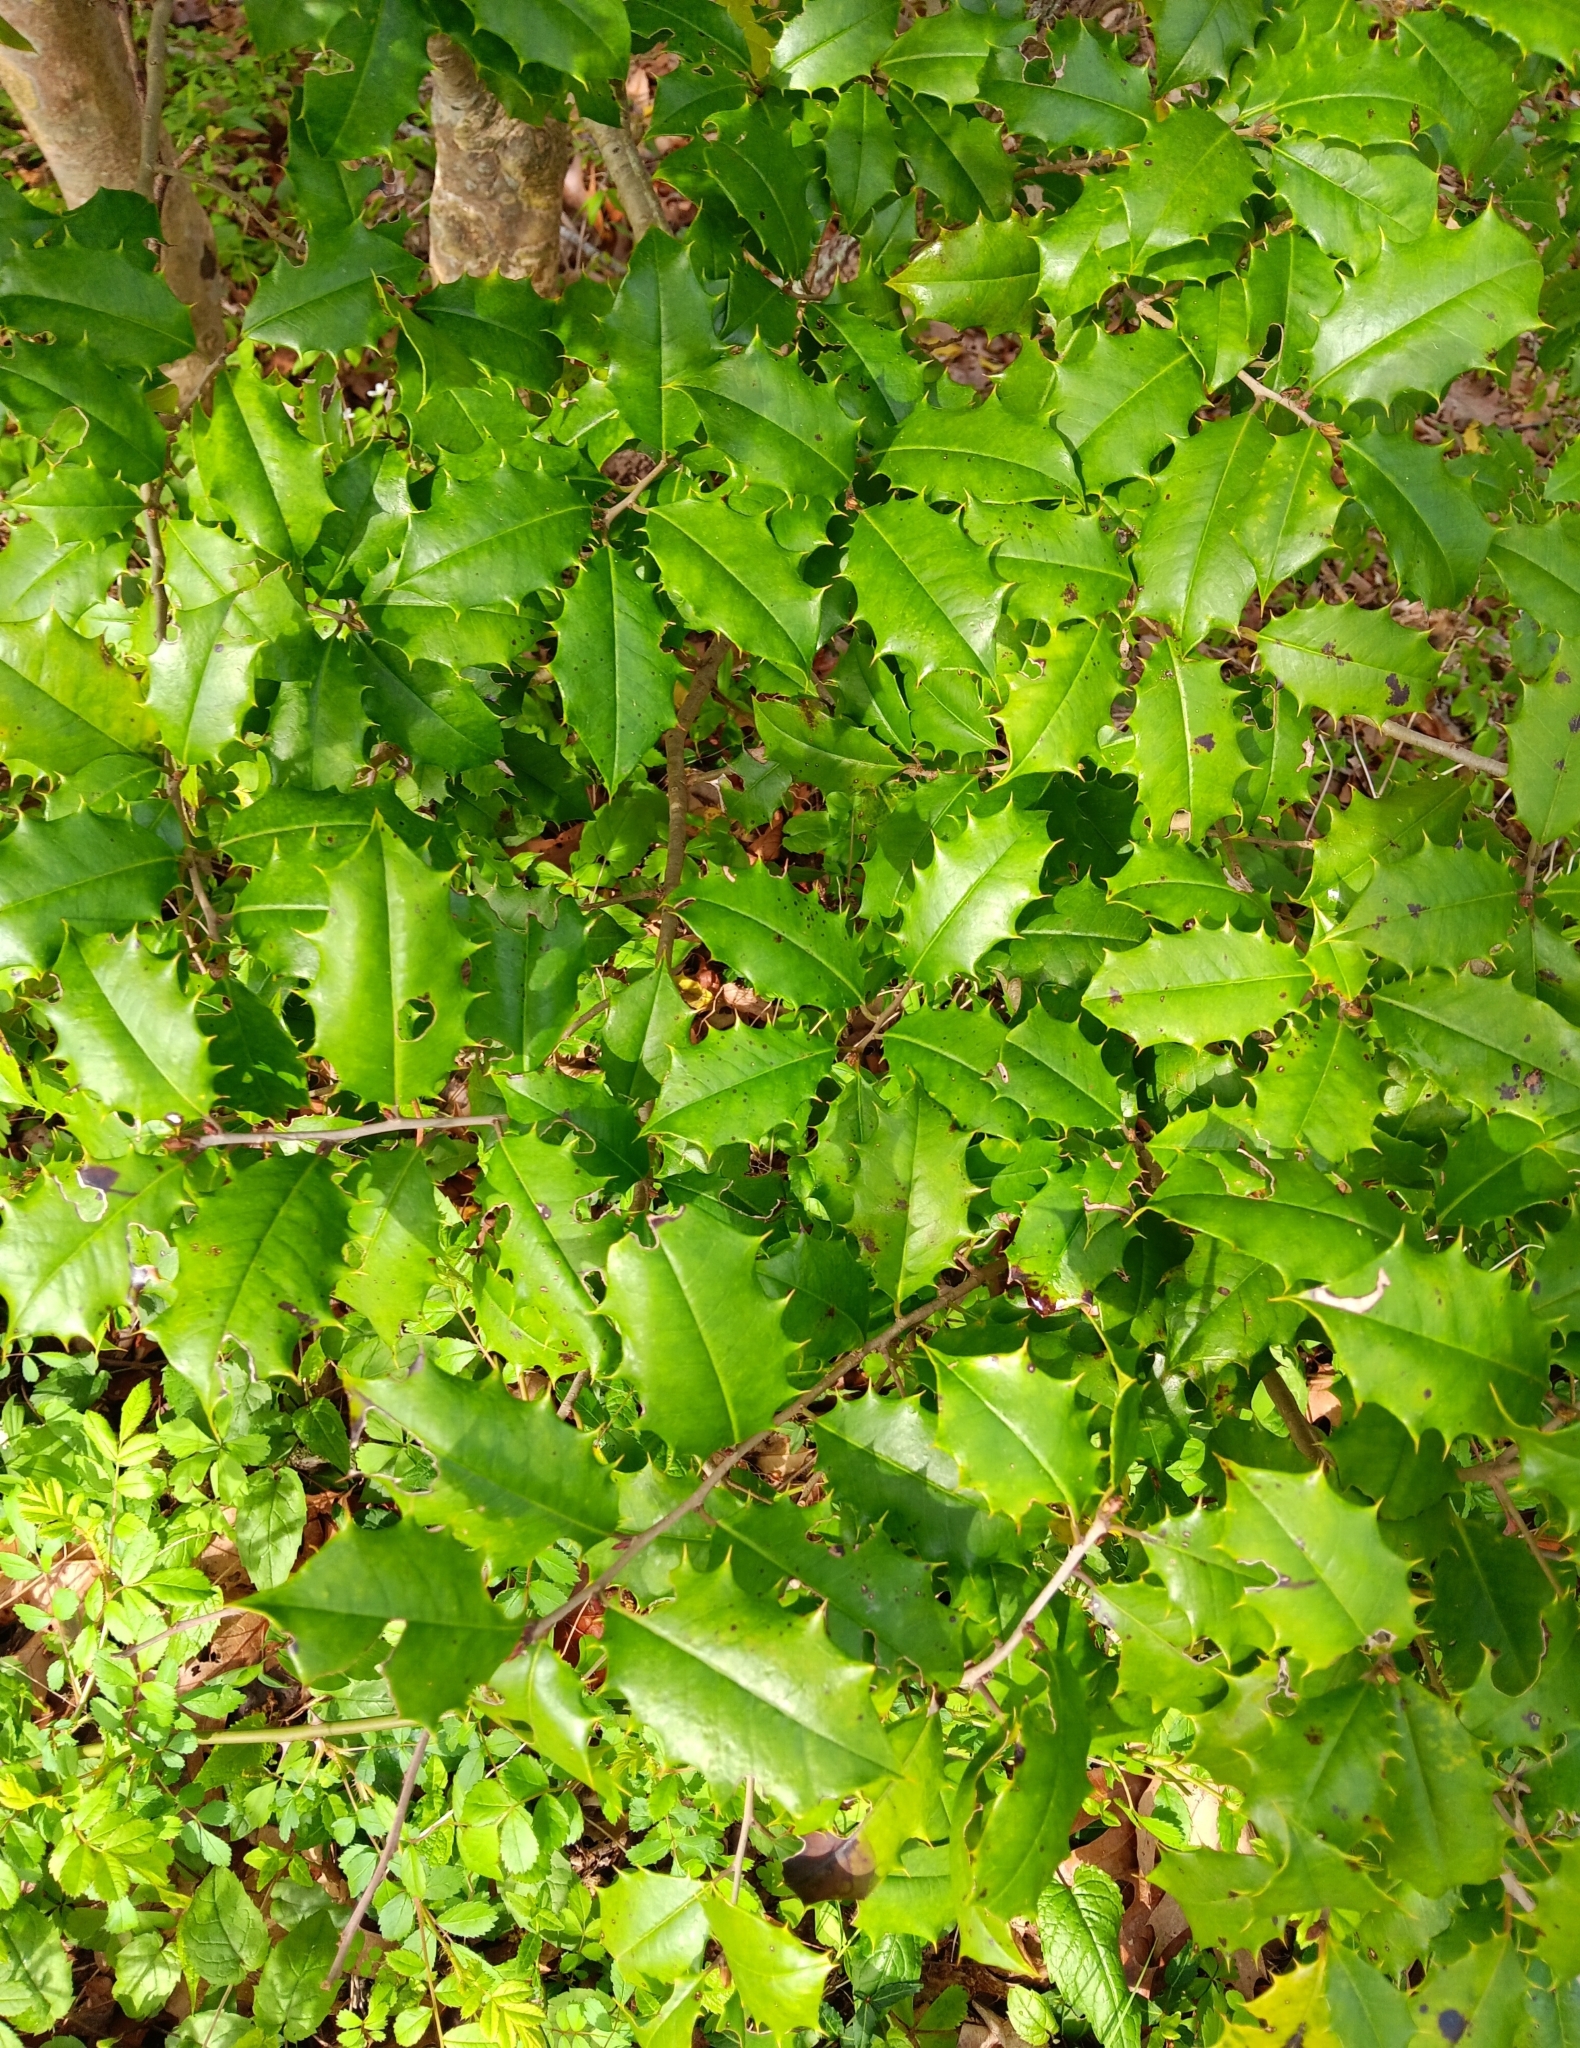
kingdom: Plantae
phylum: Tracheophyta
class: Magnoliopsida
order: Aquifoliales
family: Aquifoliaceae
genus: Ilex
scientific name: Ilex opaca
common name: American holly
